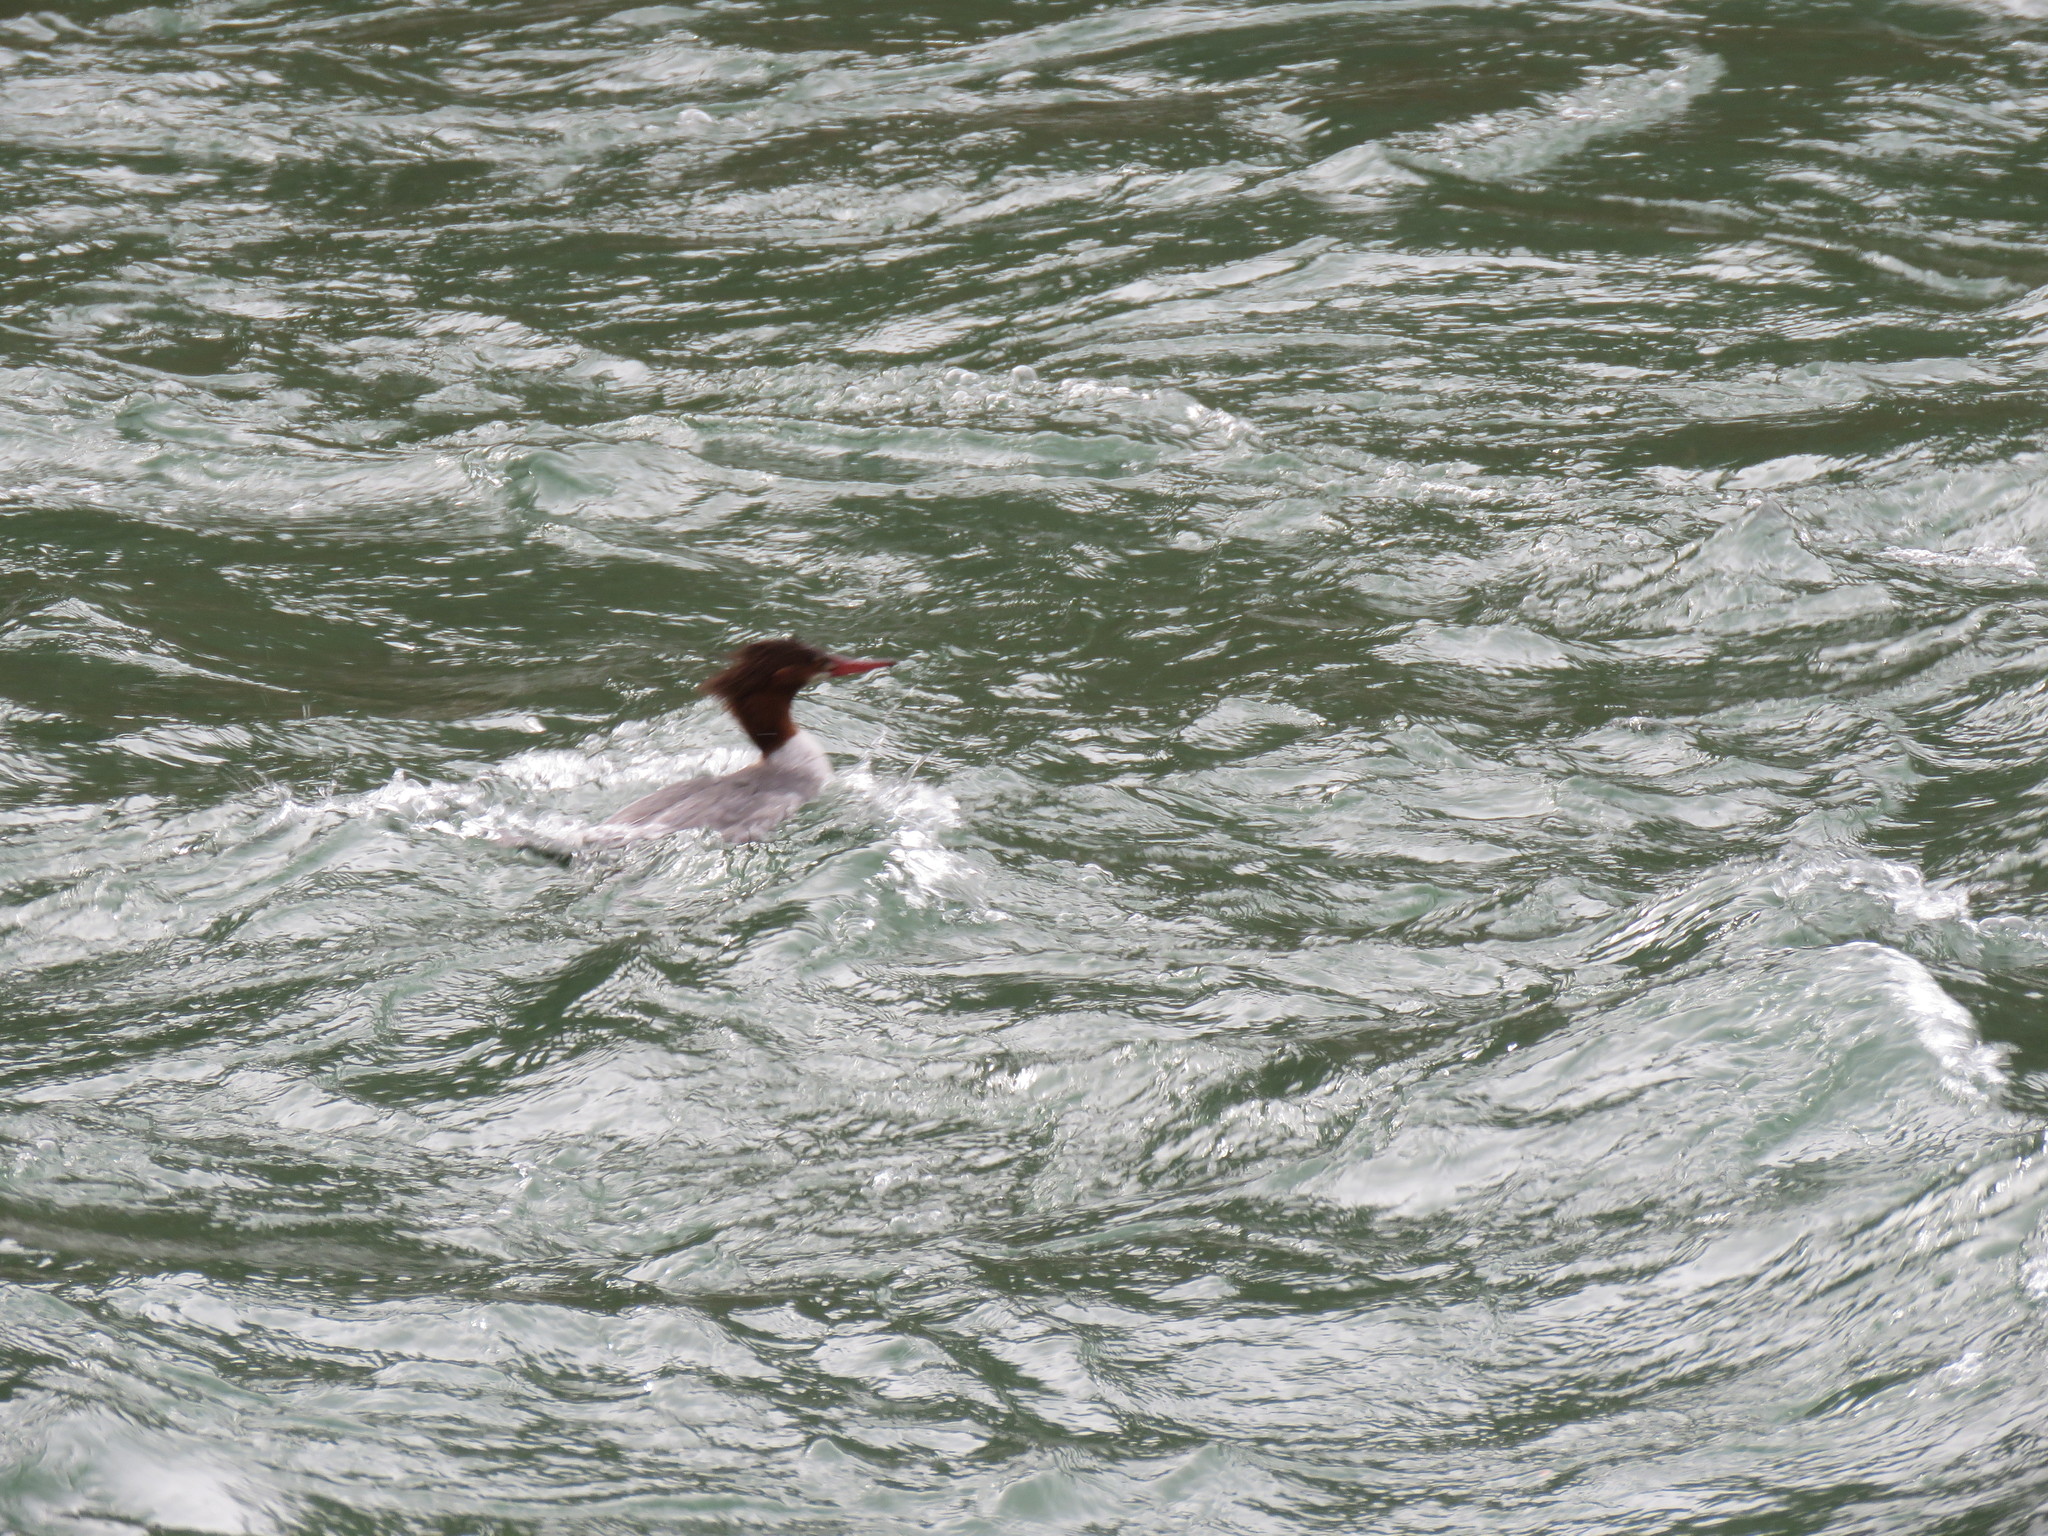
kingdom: Animalia
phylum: Chordata
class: Aves
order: Anseriformes
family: Anatidae
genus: Mergus
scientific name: Mergus merganser
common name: Common merganser
